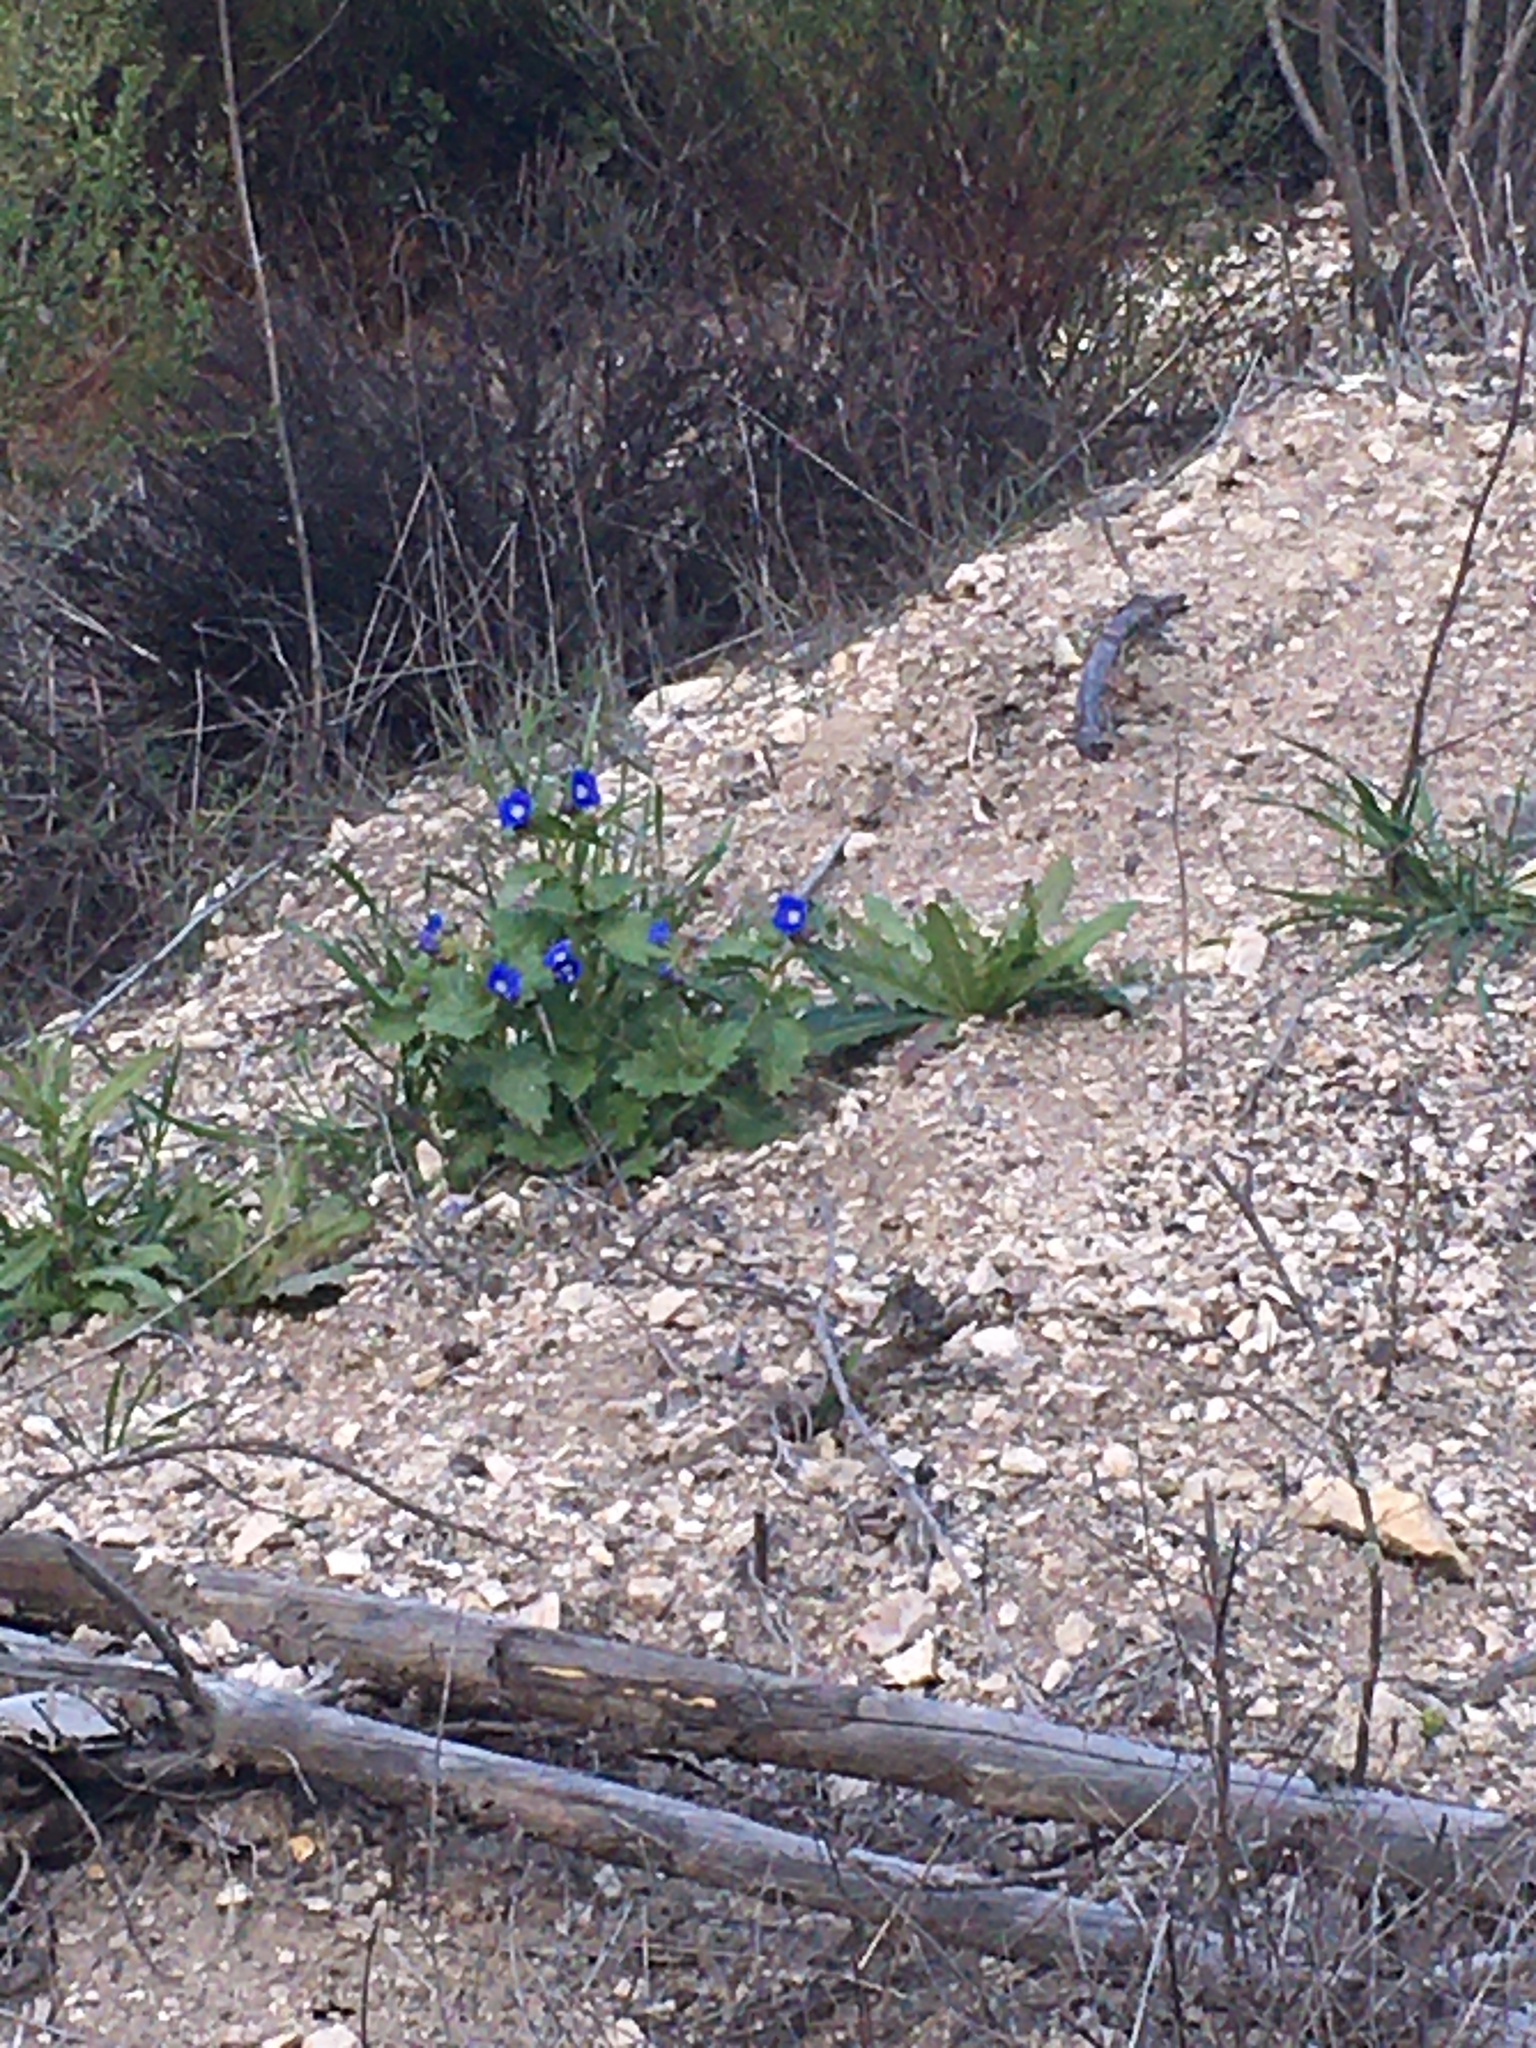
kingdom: Plantae
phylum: Tracheophyta
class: Magnoliopsida
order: Boraginales
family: Hydrophyllaceae
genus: Phacelia
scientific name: Phacelia viscida
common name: Sticky phacelia
